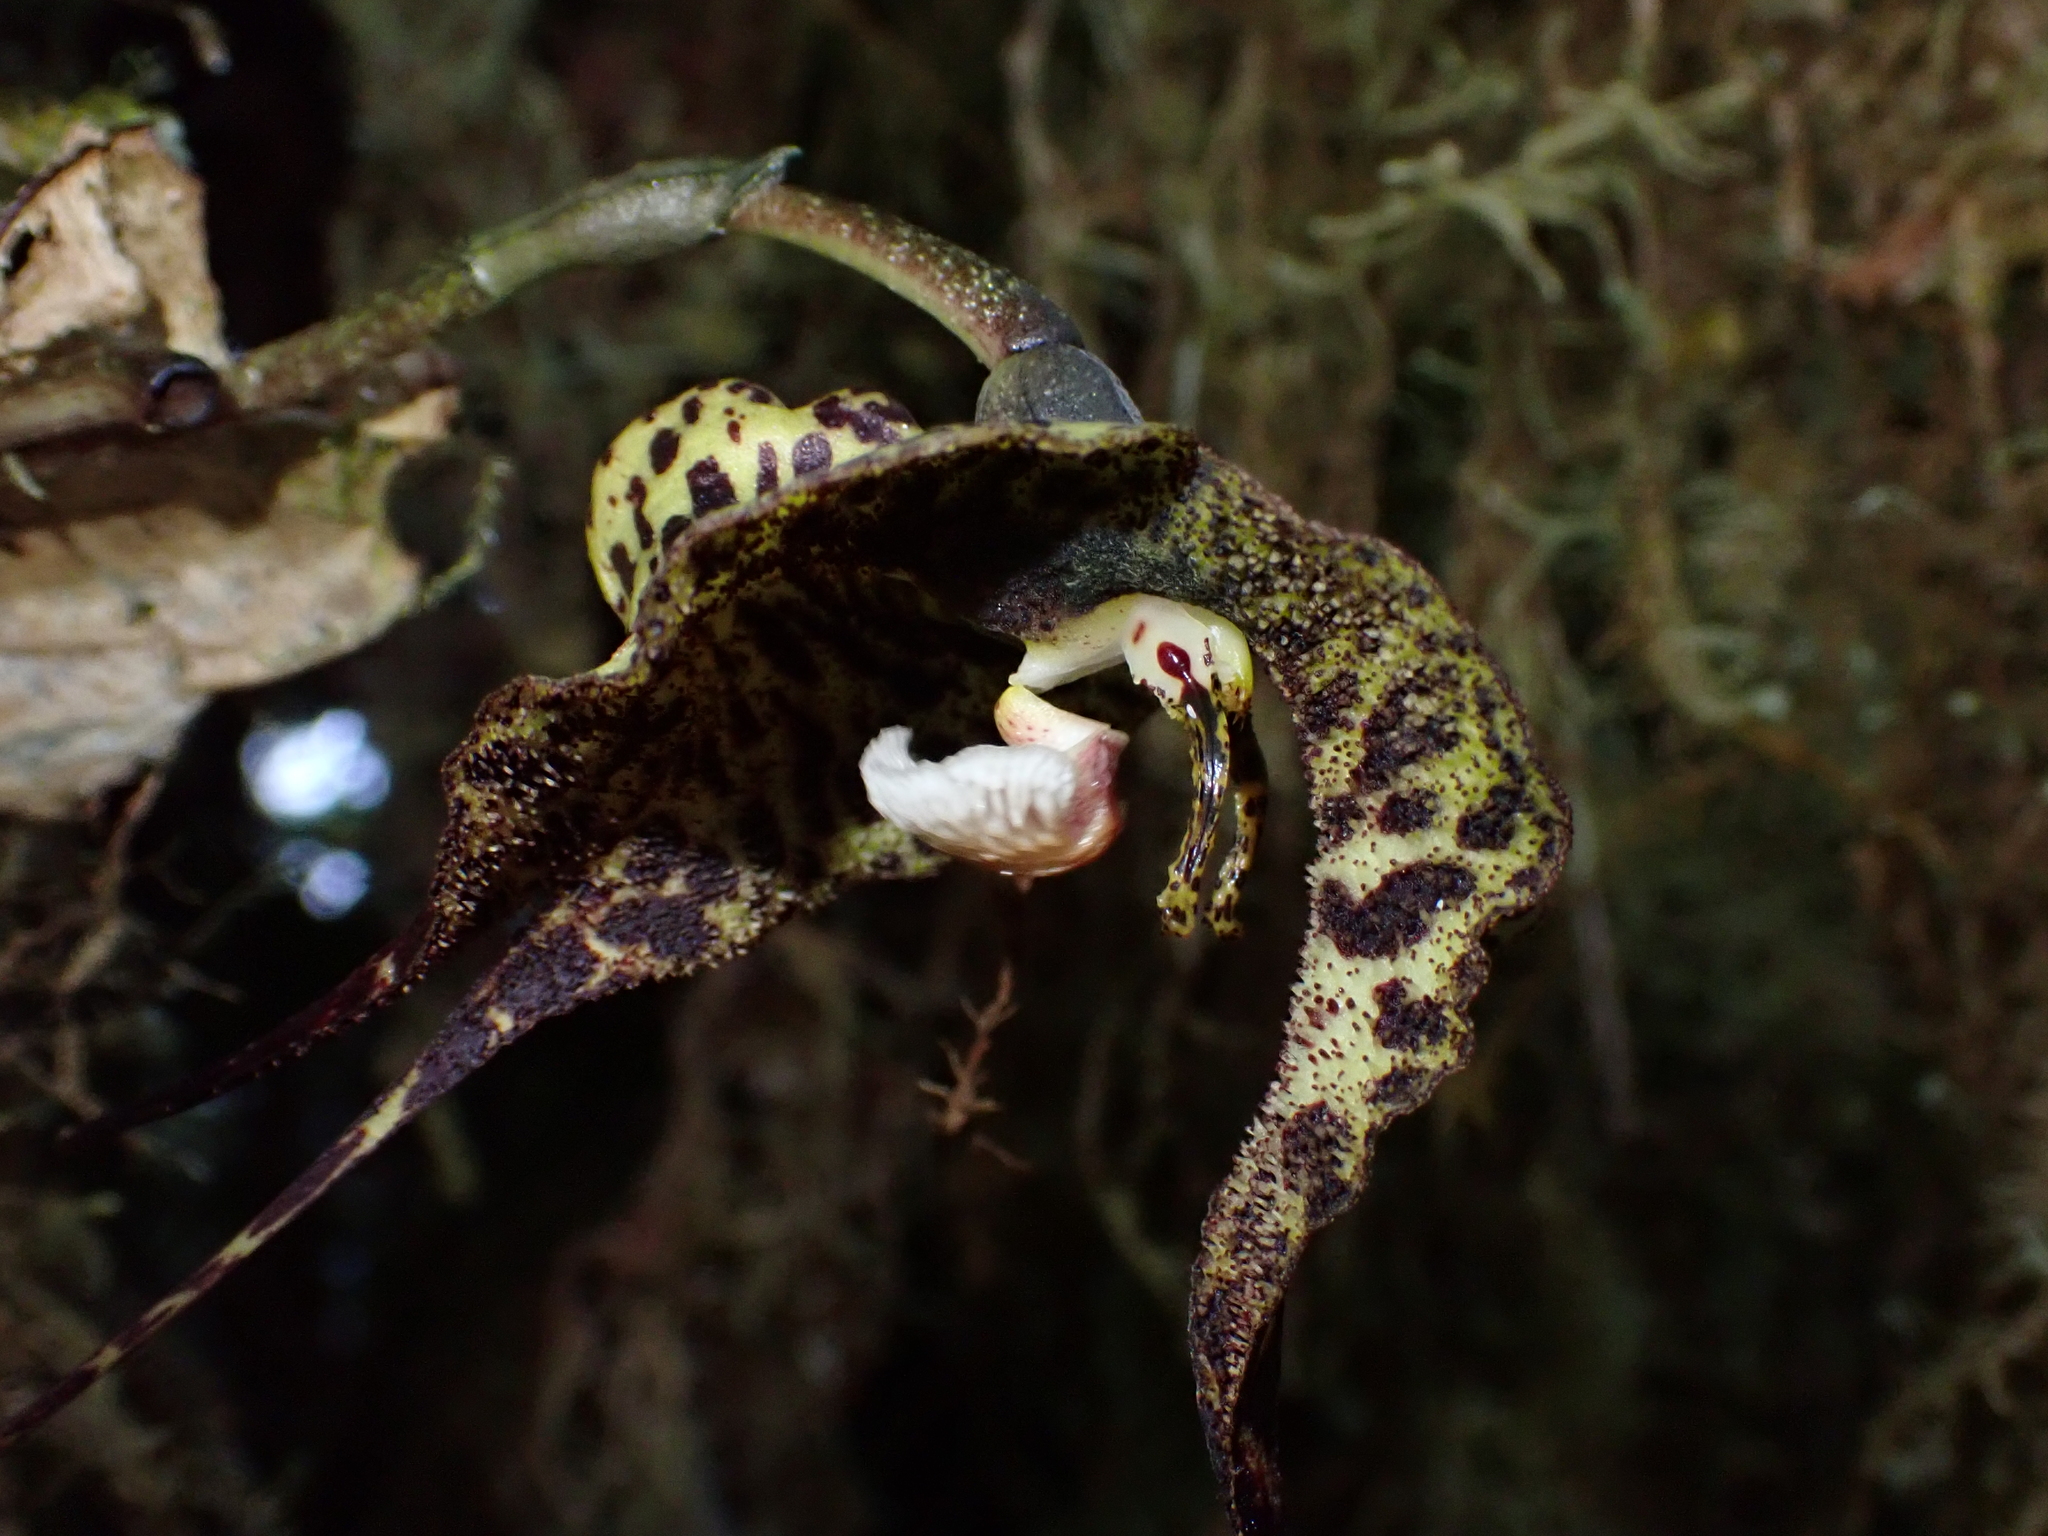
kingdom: Plantae
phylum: Tracheophyta
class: Liliopsida
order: Asparagales
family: Orchidaceae
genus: Dracula
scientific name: Dracula andreettae
